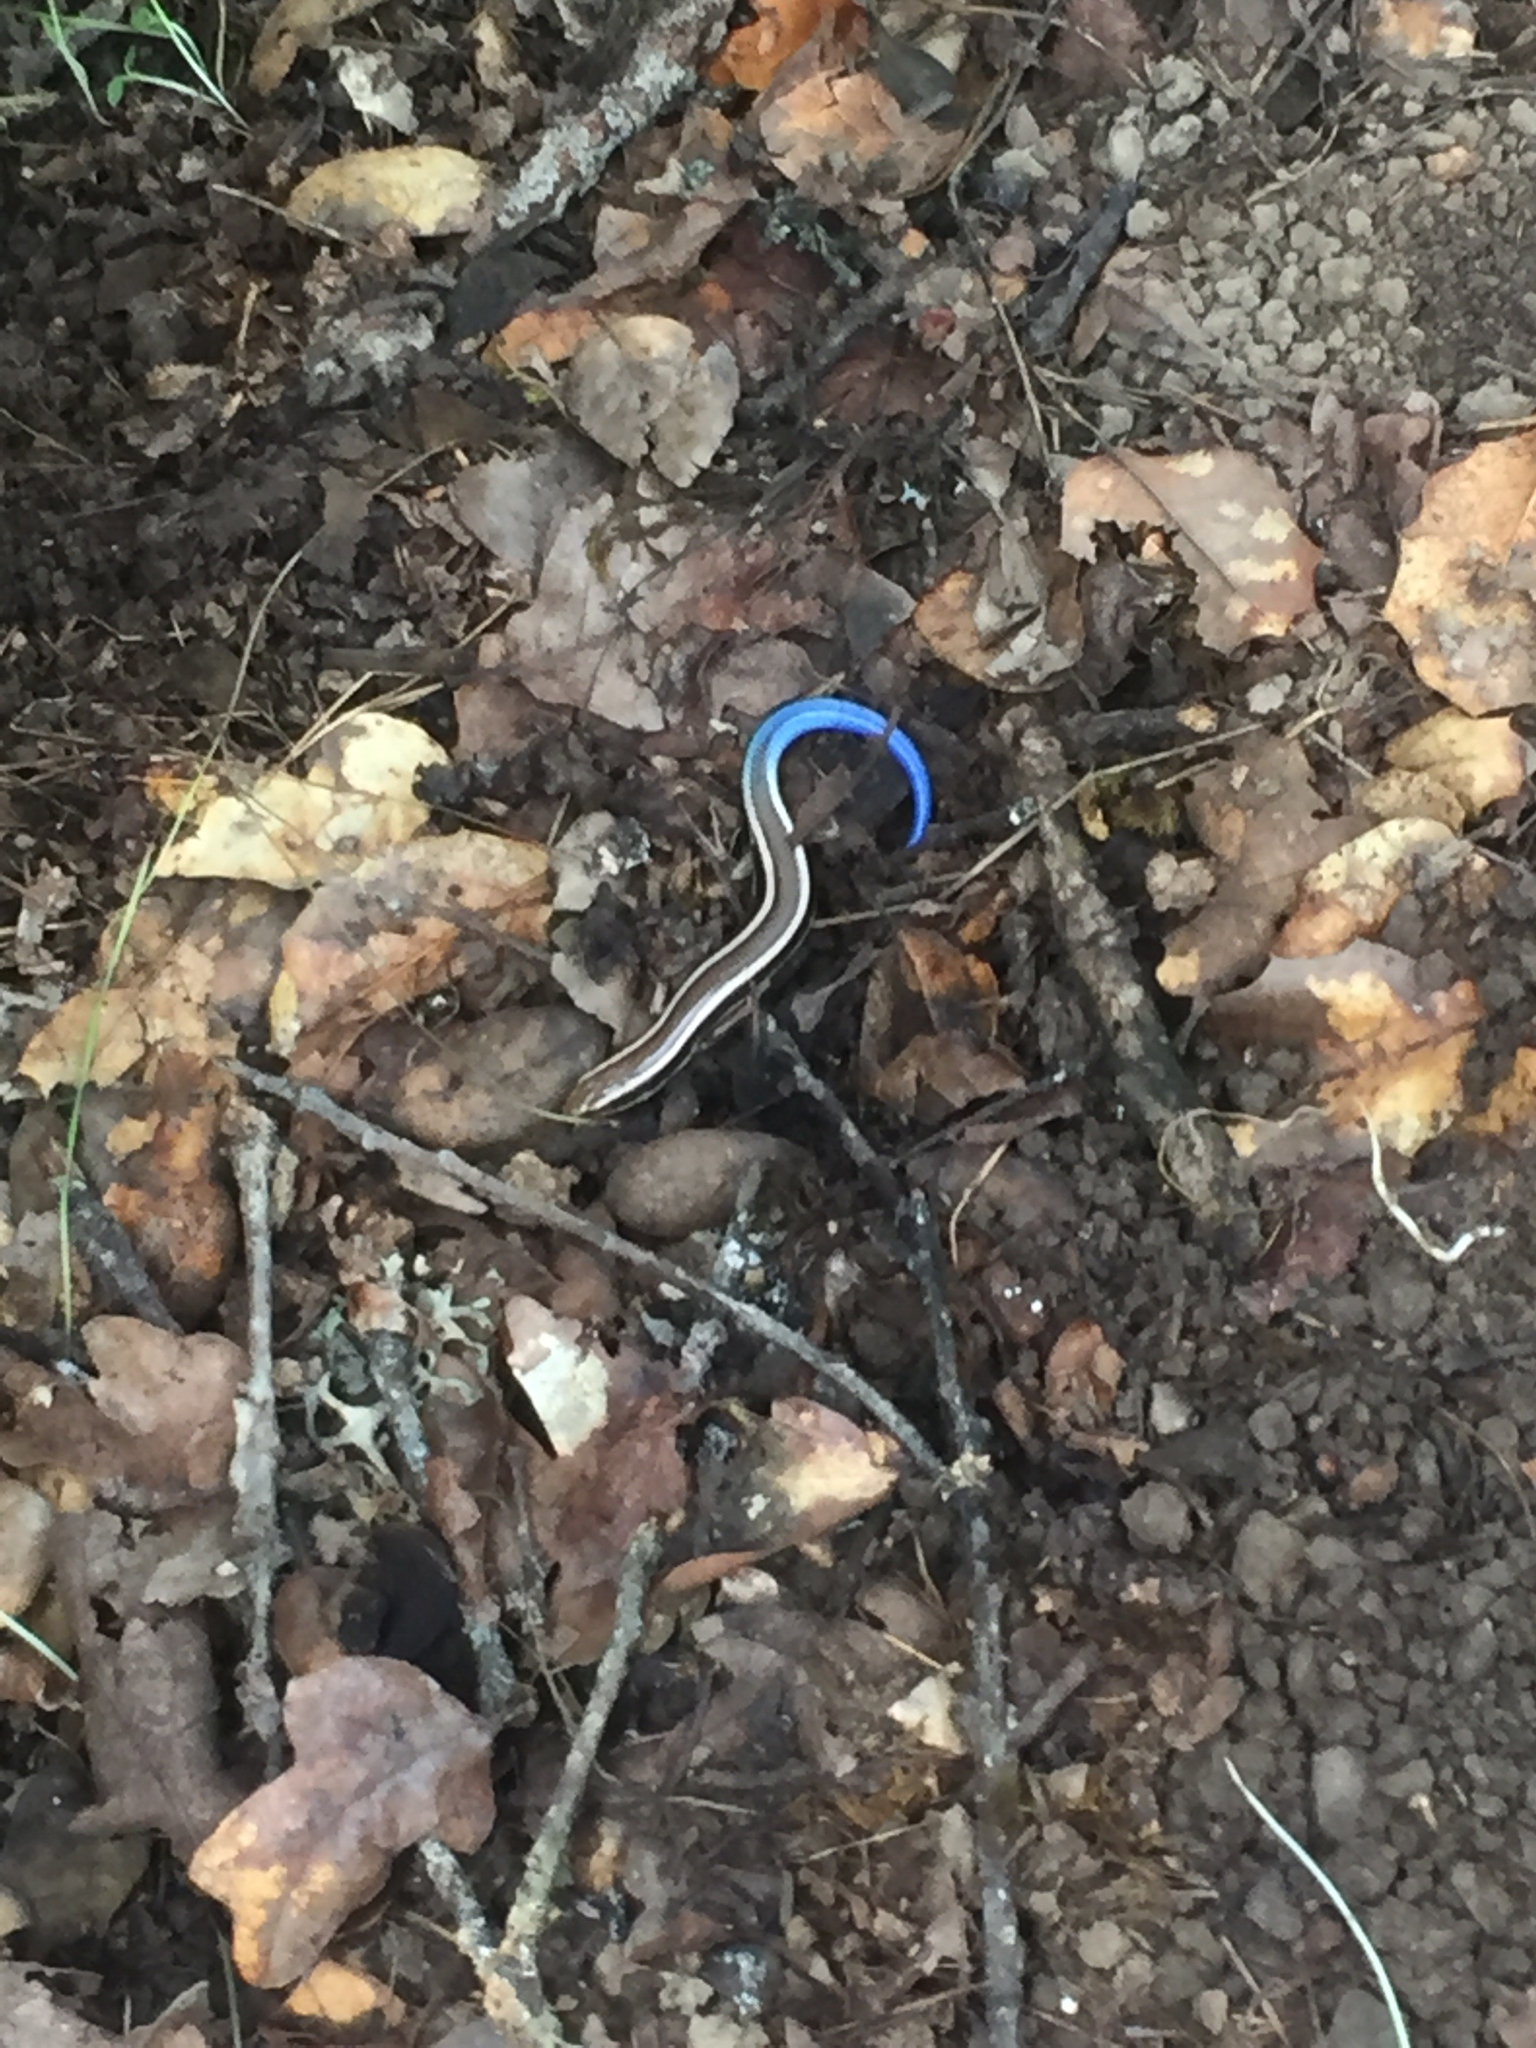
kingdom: Animalia
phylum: Chordata
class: Squamata
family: Scincidae
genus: Plestiodon
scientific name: Plestiodon skiltonianus
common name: Coronado island skink [interparietalis]
